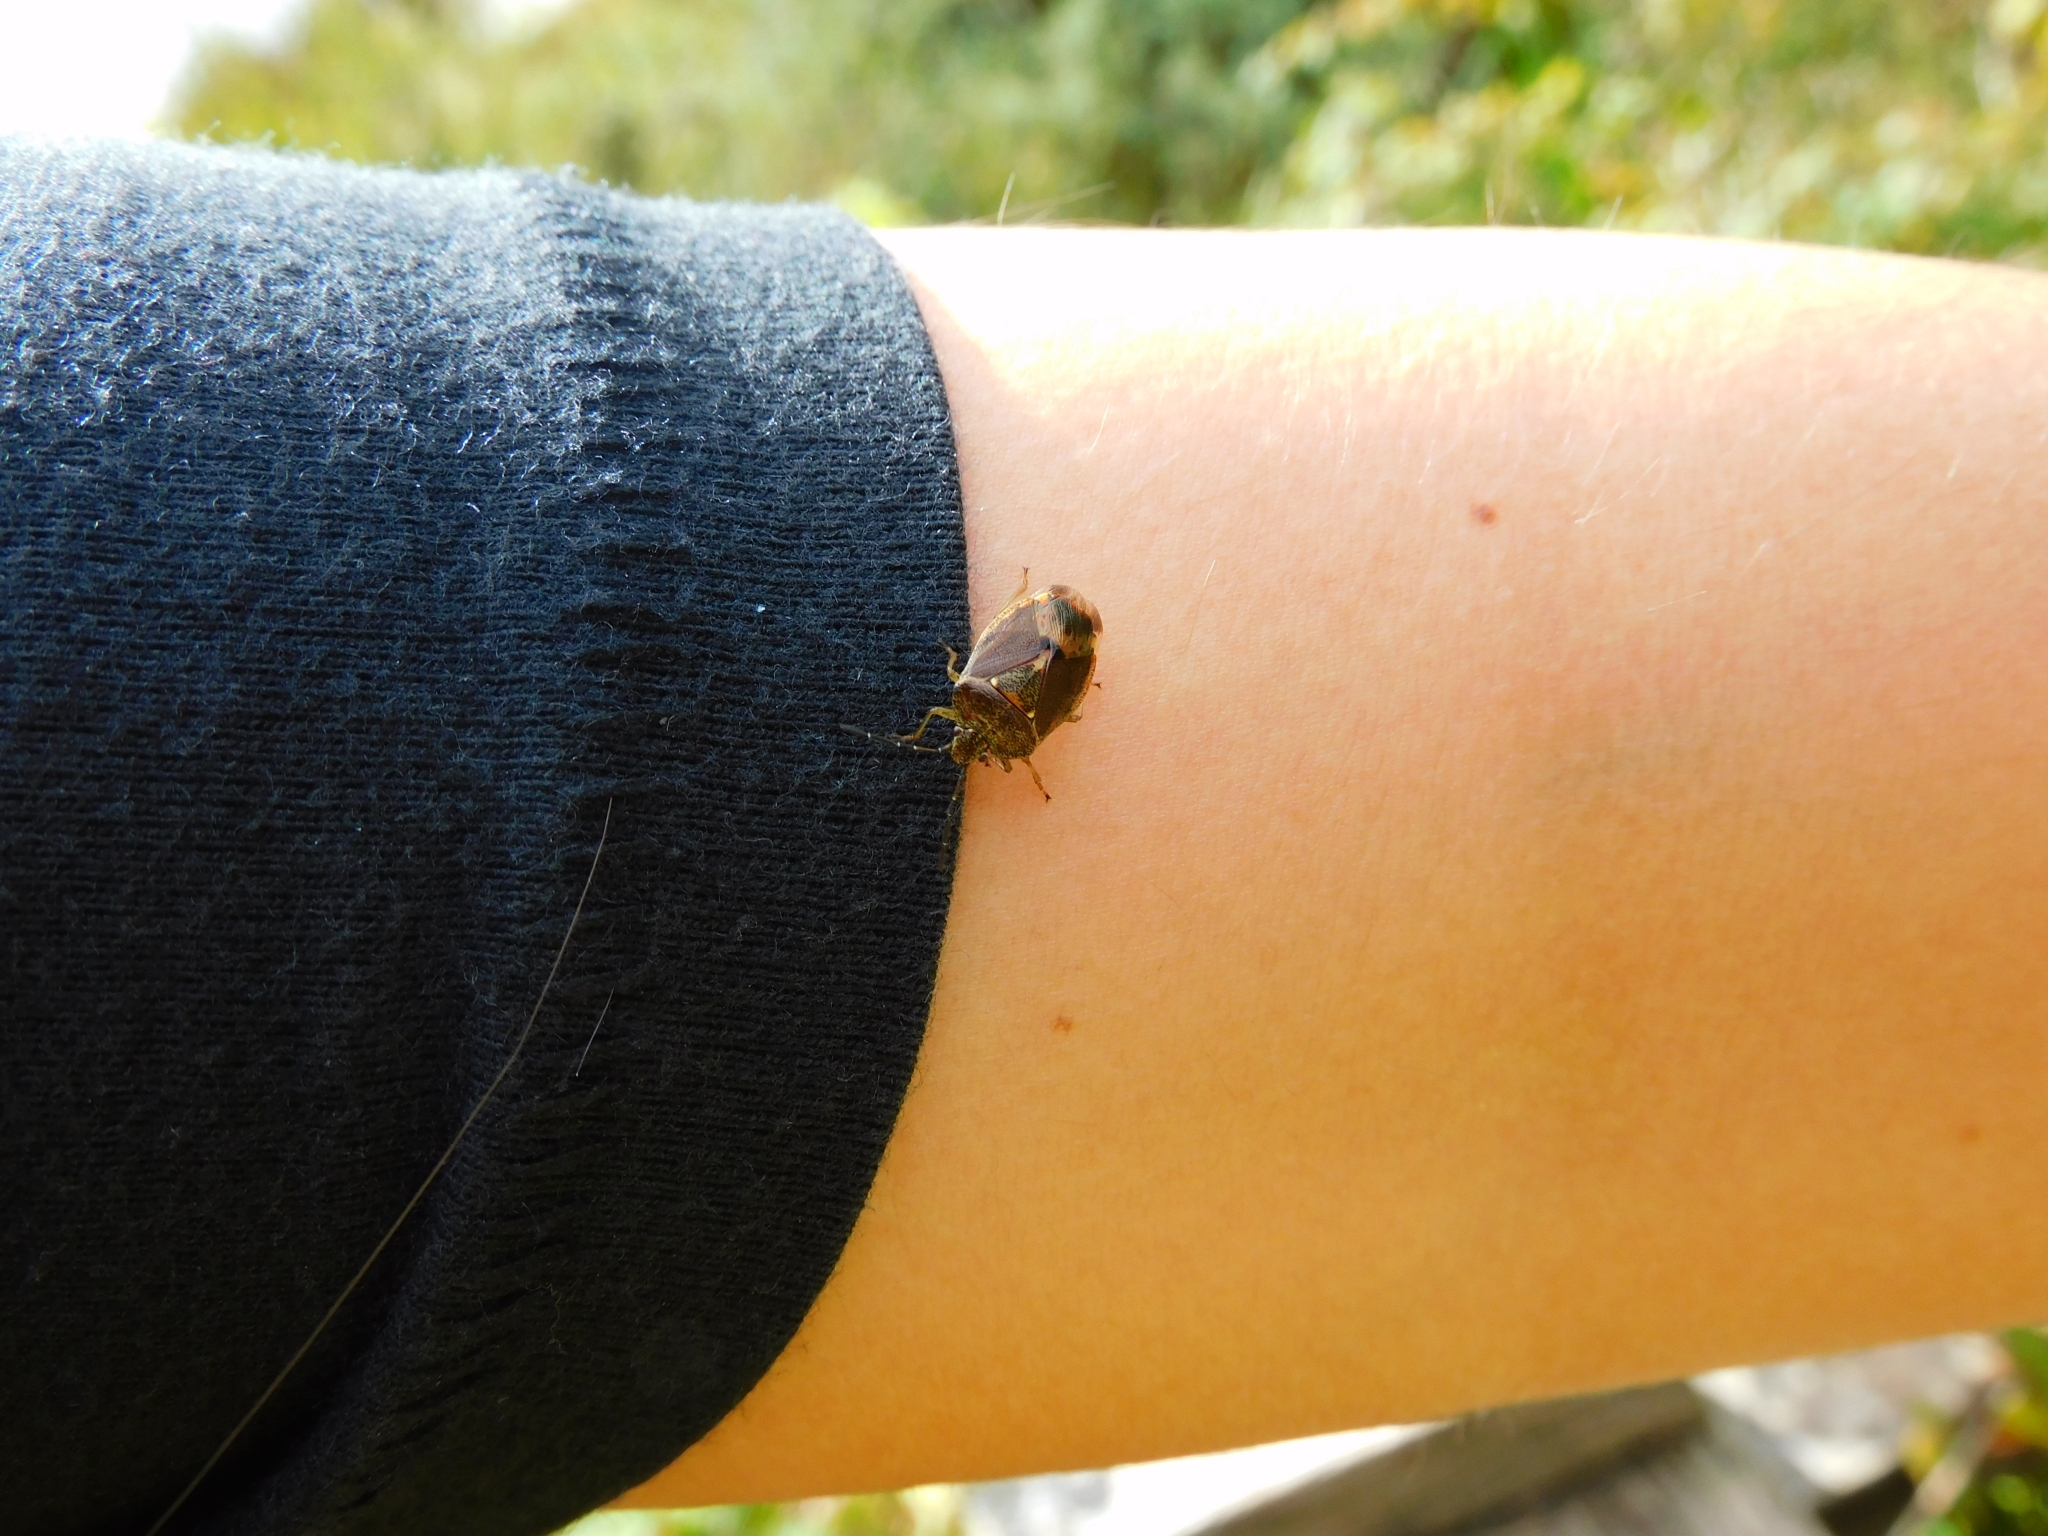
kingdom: Animalia
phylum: Arthropoda
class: Insecta
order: Hemiptera
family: Acanthosomatidae
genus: Ditomotarsus
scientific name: Ditomotarsus punctiventris
